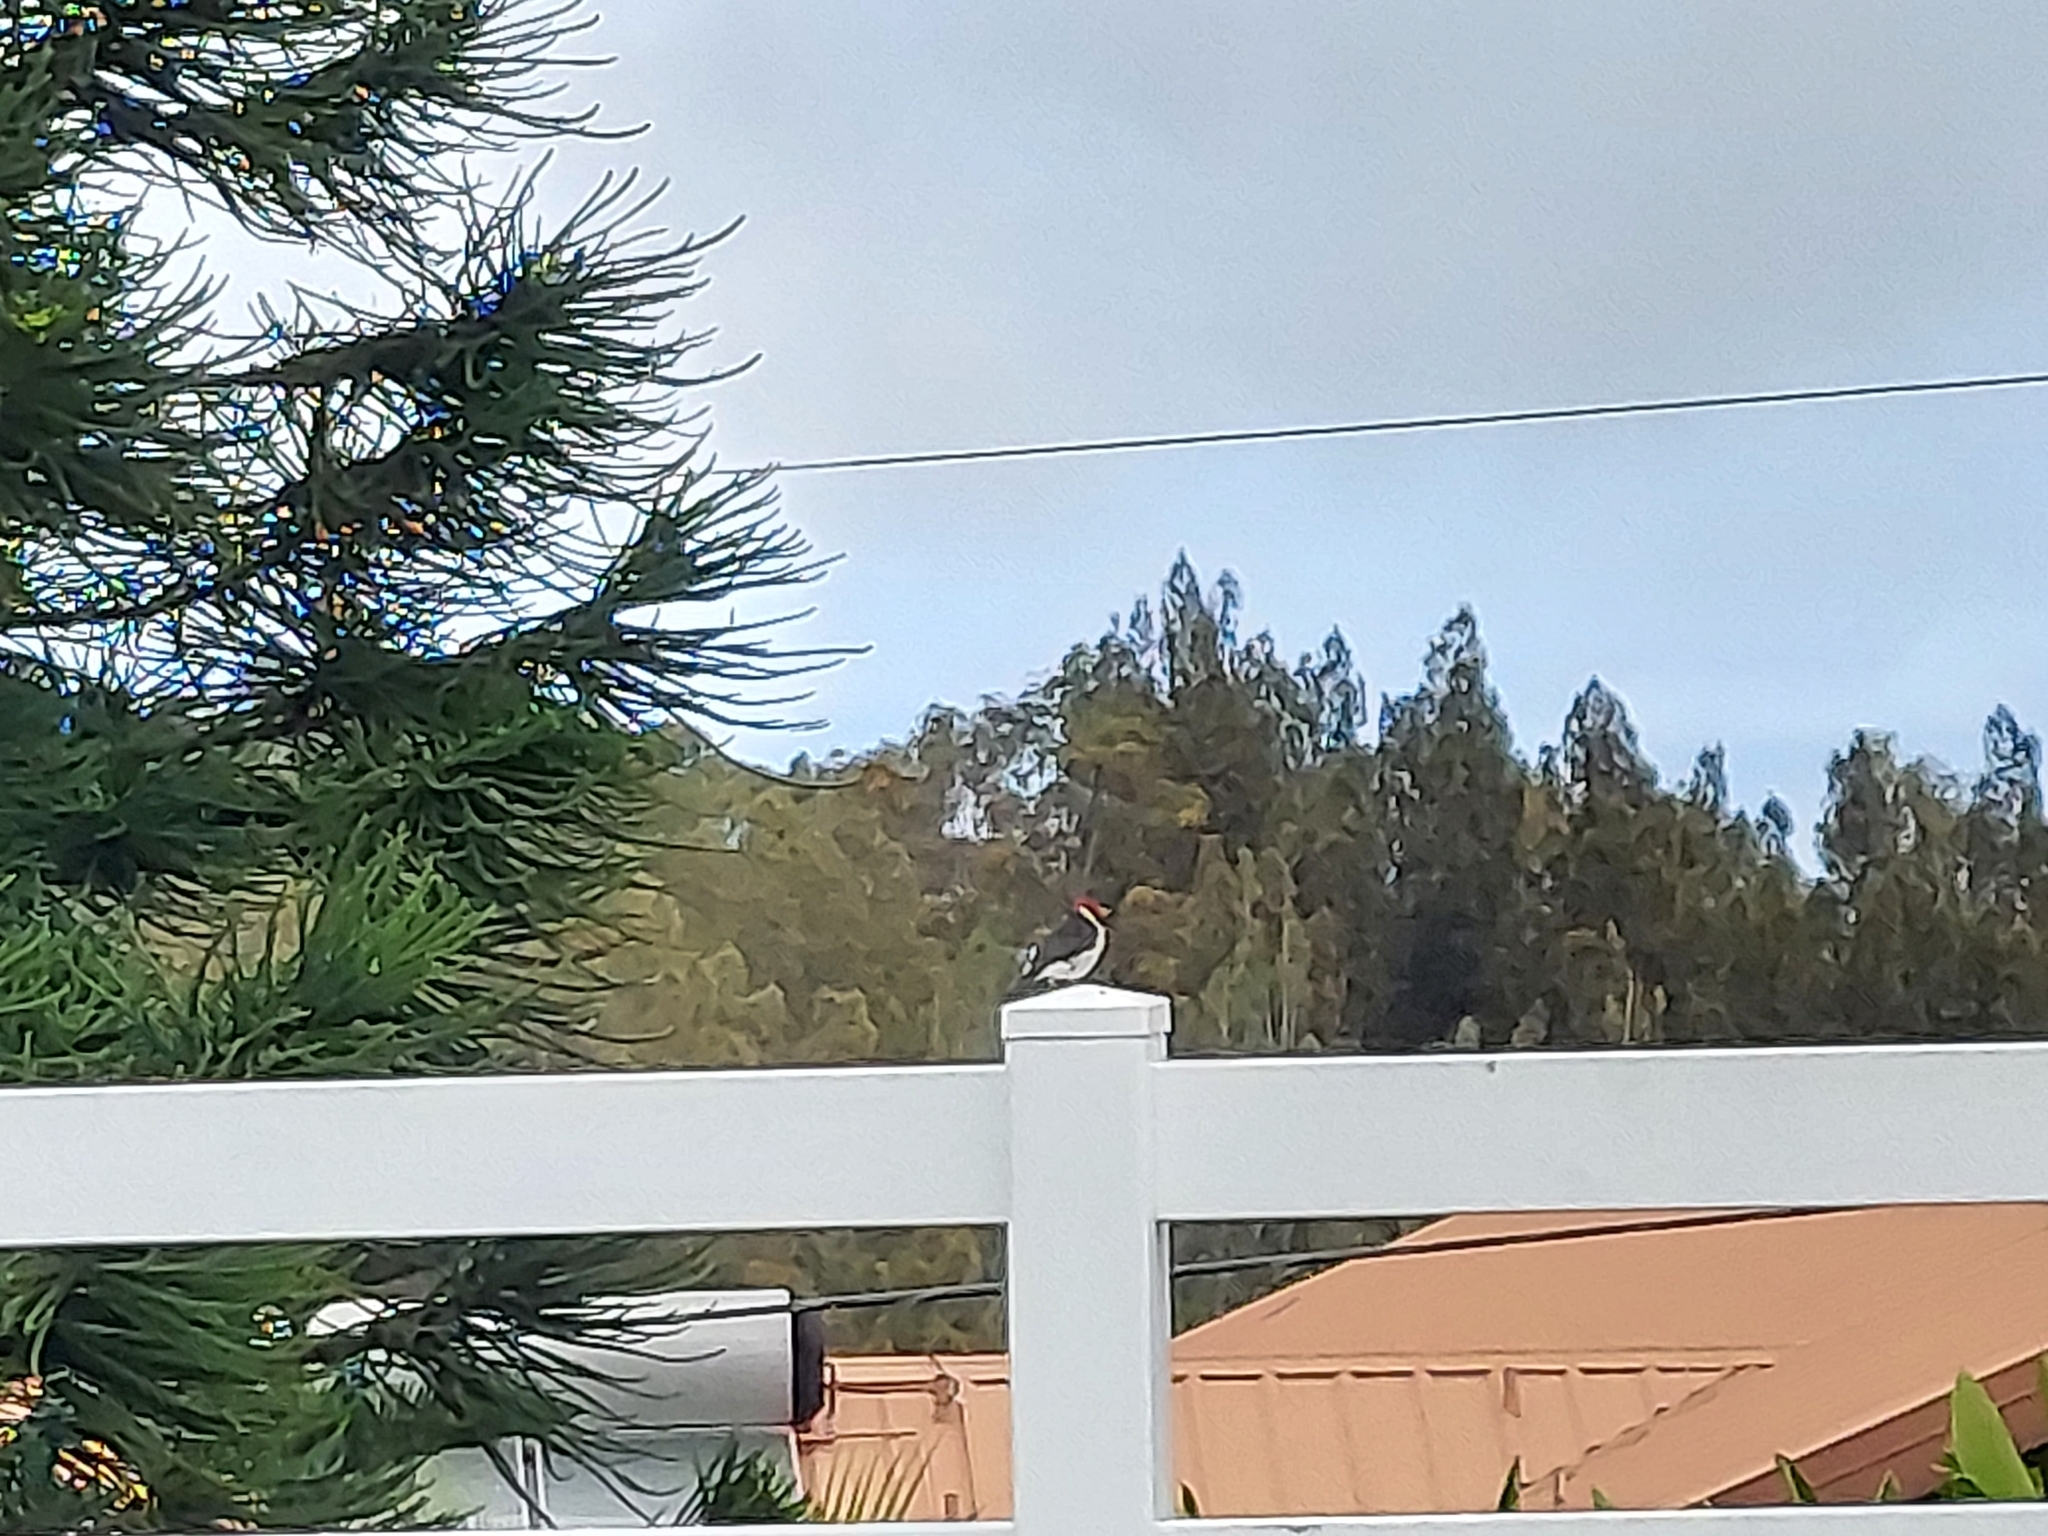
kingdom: Animalia
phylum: Chordata
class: Aves
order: Passeriformes
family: Thraupidae
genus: Paroaria
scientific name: Paroaria capitata
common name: Yellow-billed cardinal
